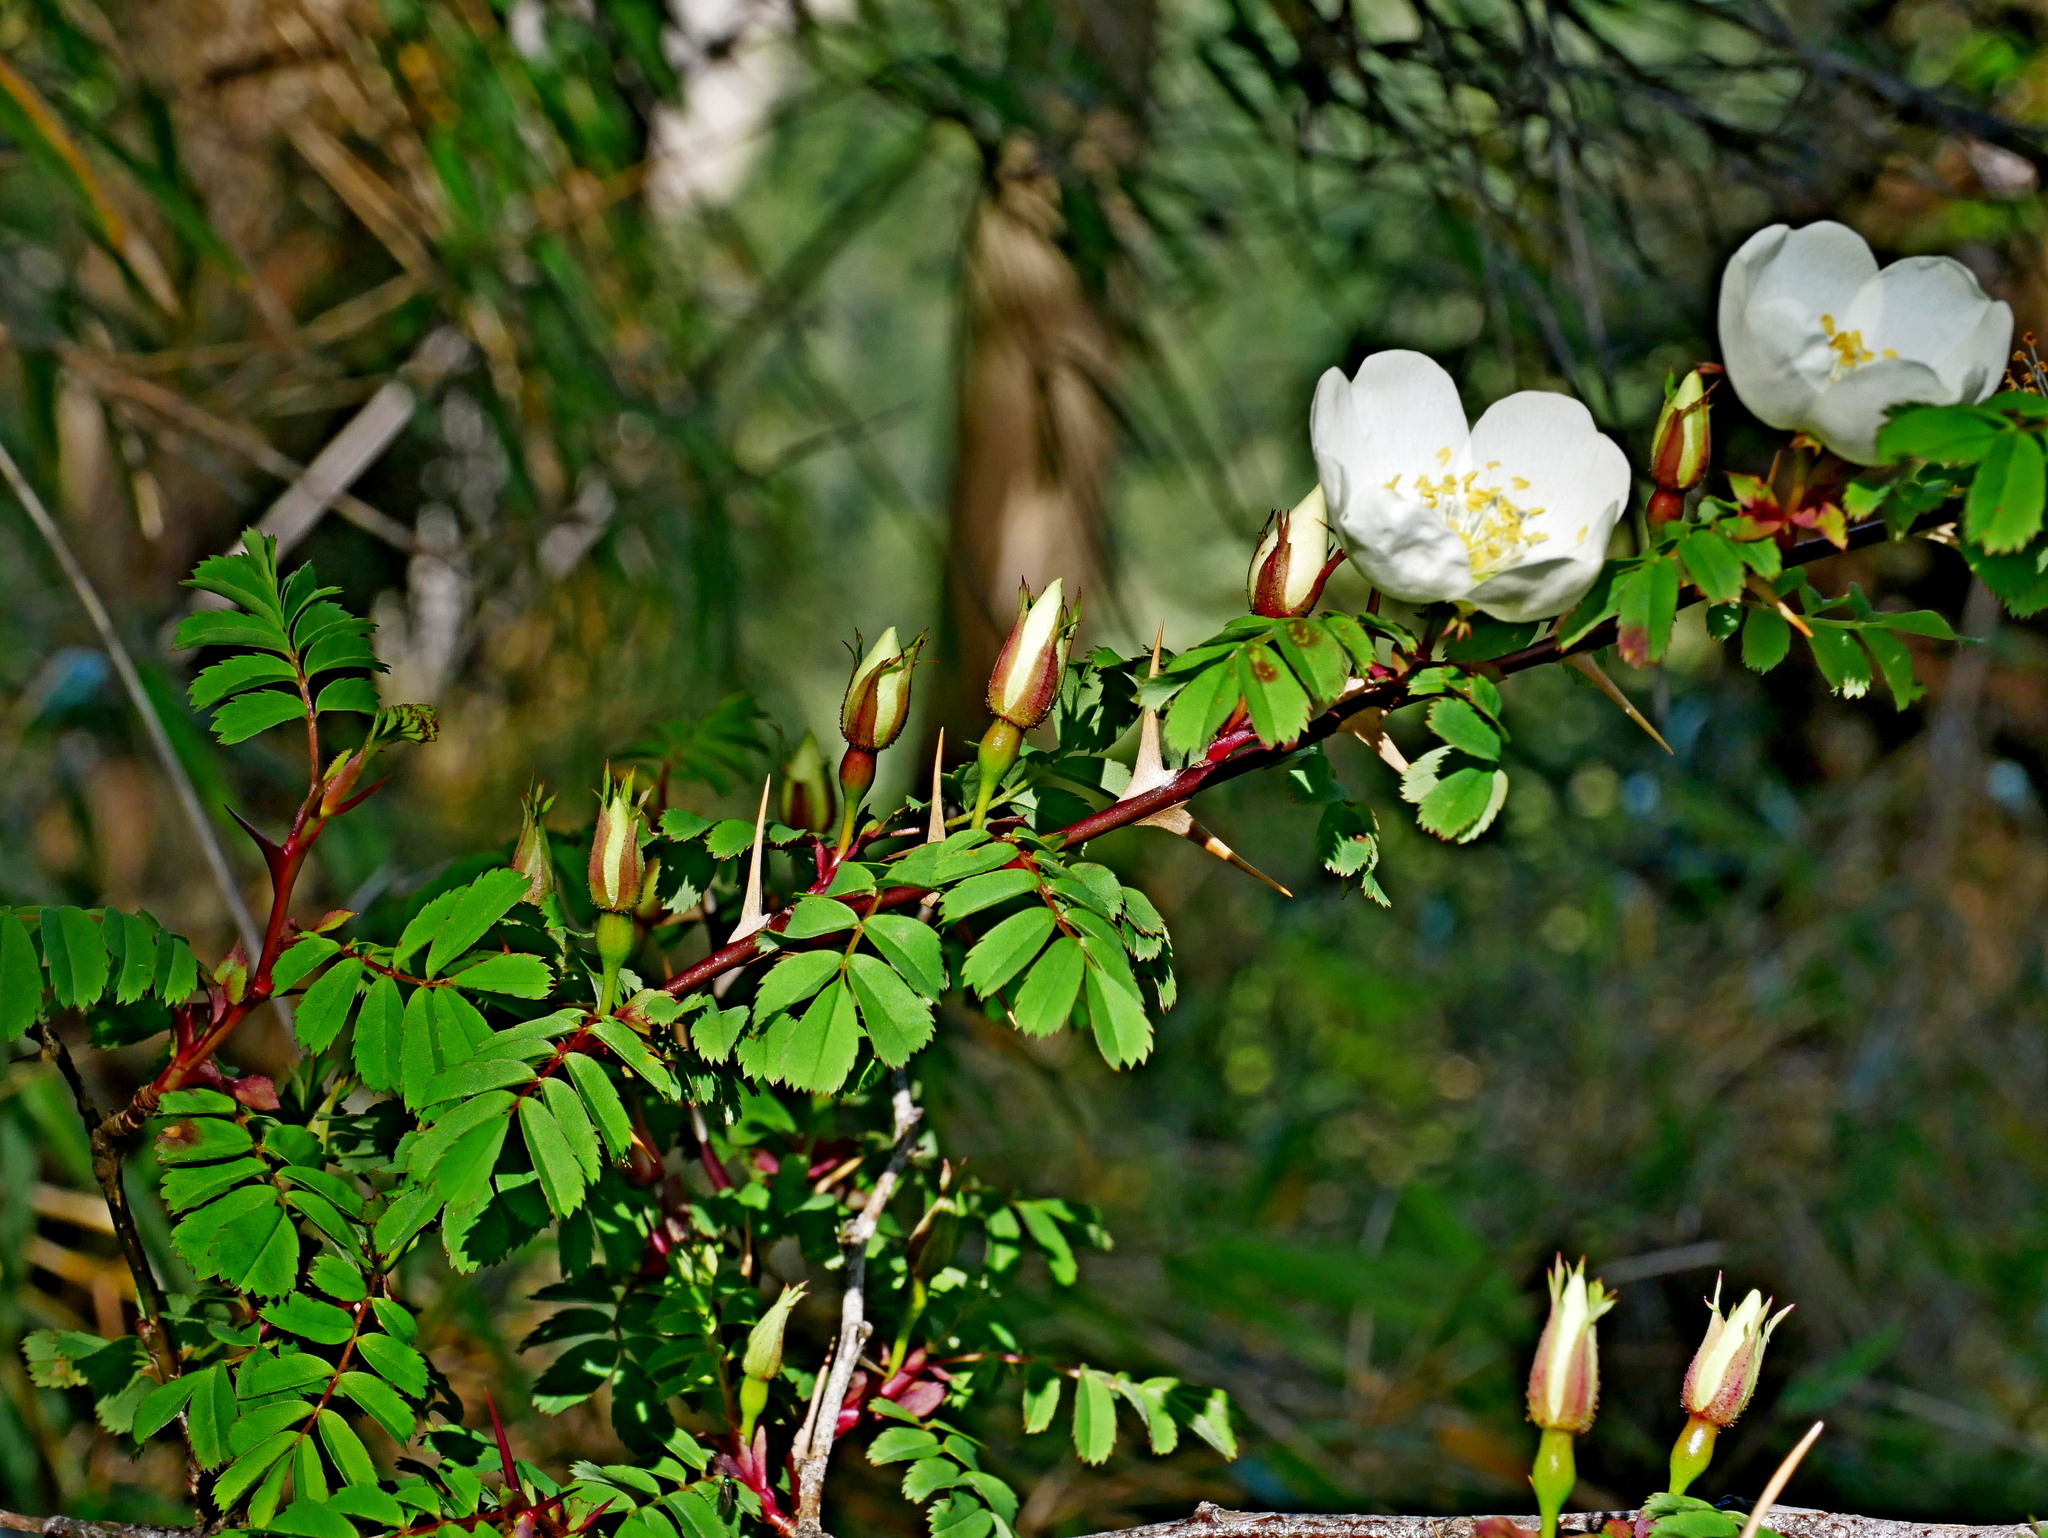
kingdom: Plantae
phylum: Tracheophyta
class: Magnoliopsida
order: Rosales
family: Rosaceae
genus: Rosa
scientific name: Rosa morrisonensis
